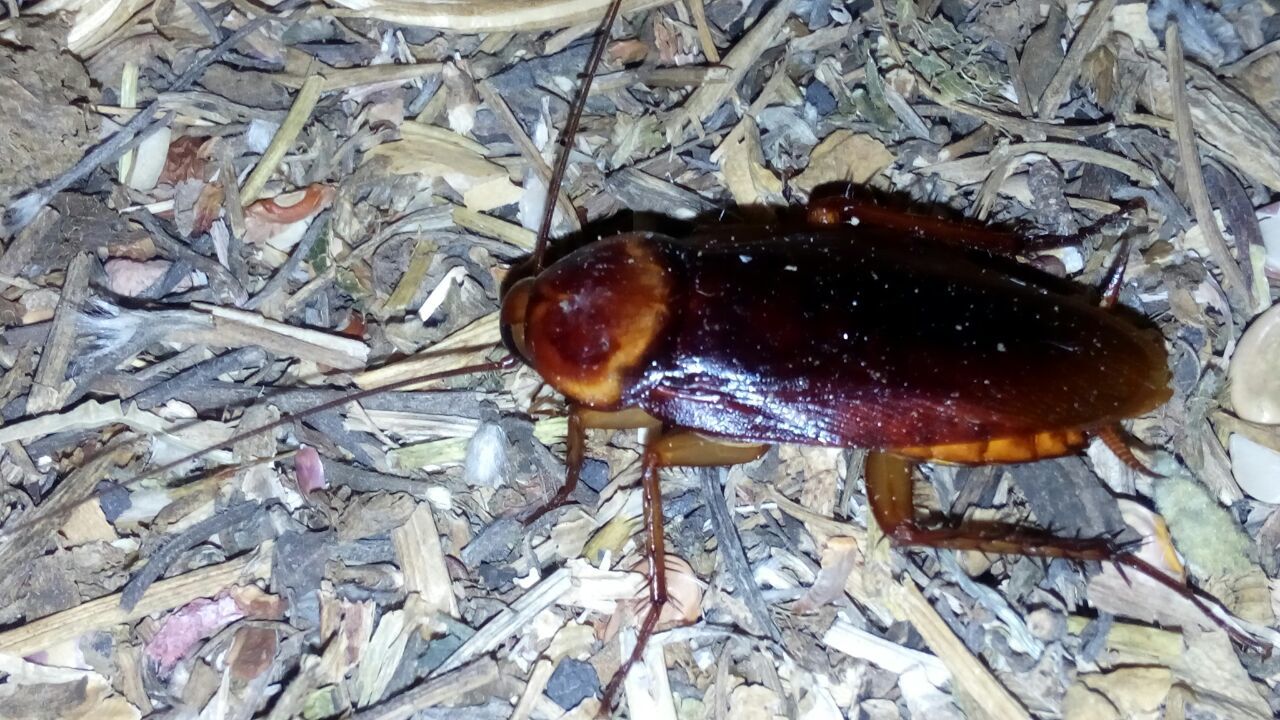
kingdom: Animalia
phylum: Arthropoda
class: Insecta
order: Blattodea
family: Blattidae
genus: Periplaneta
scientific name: Periplaneta americana
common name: American cockroach
